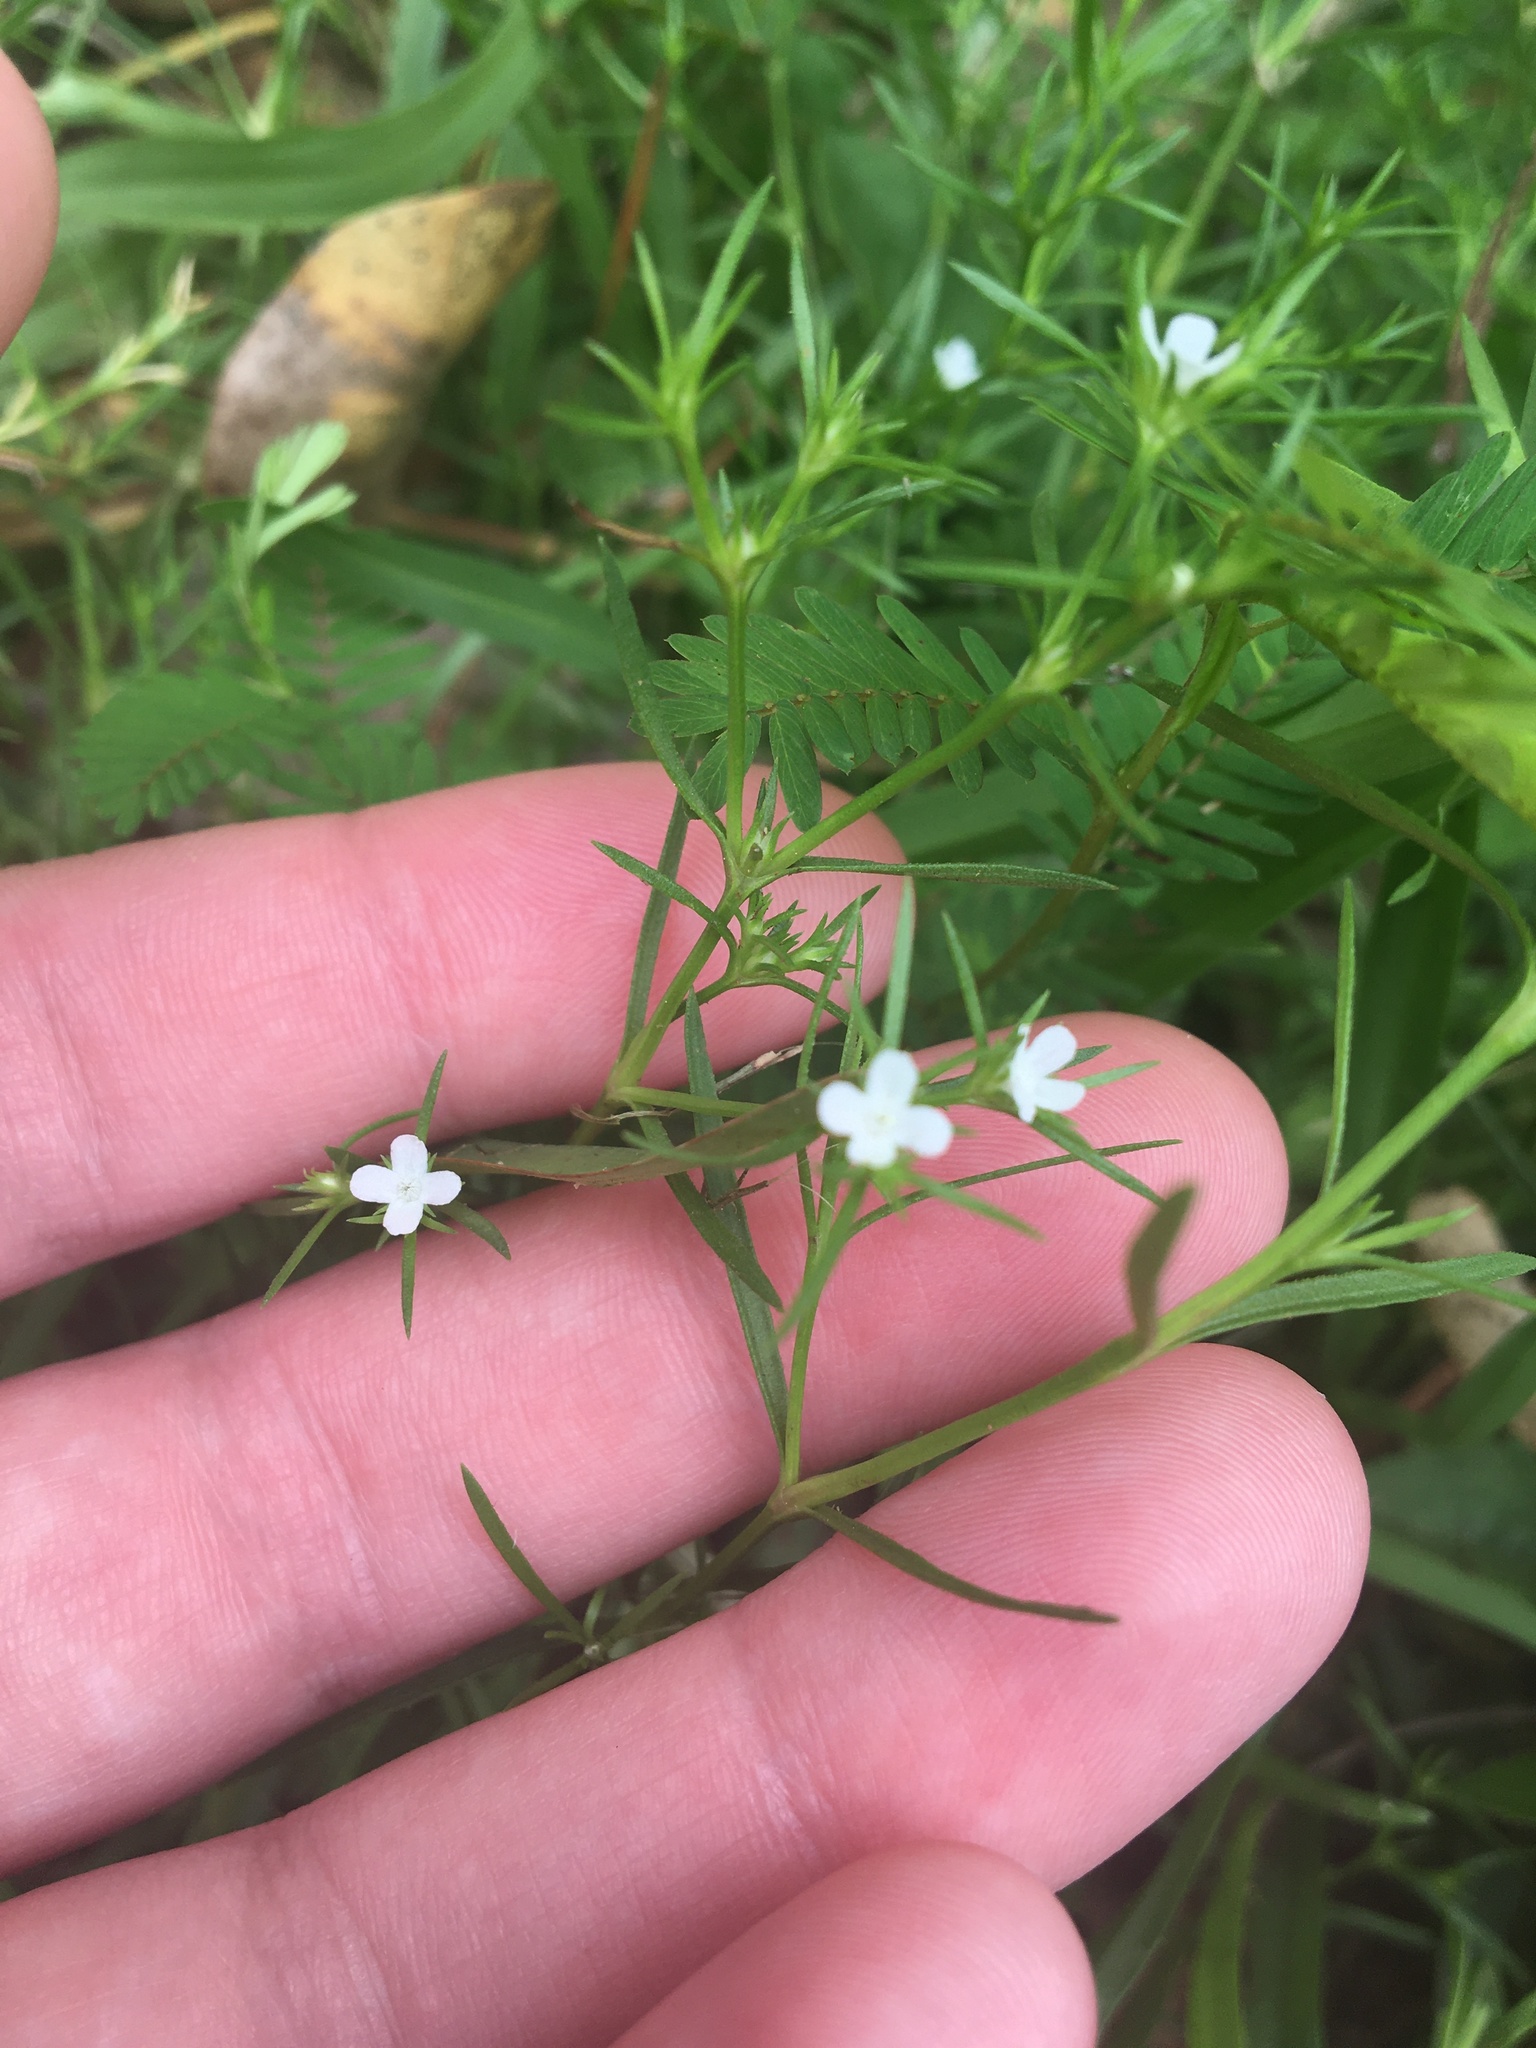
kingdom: Plantae
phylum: Tracheophyta
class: Magnoliopsida
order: Lamiales
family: Tetrachondraceae
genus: Polypremum
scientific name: Polypremum procumbens
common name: Juniper-leaf
